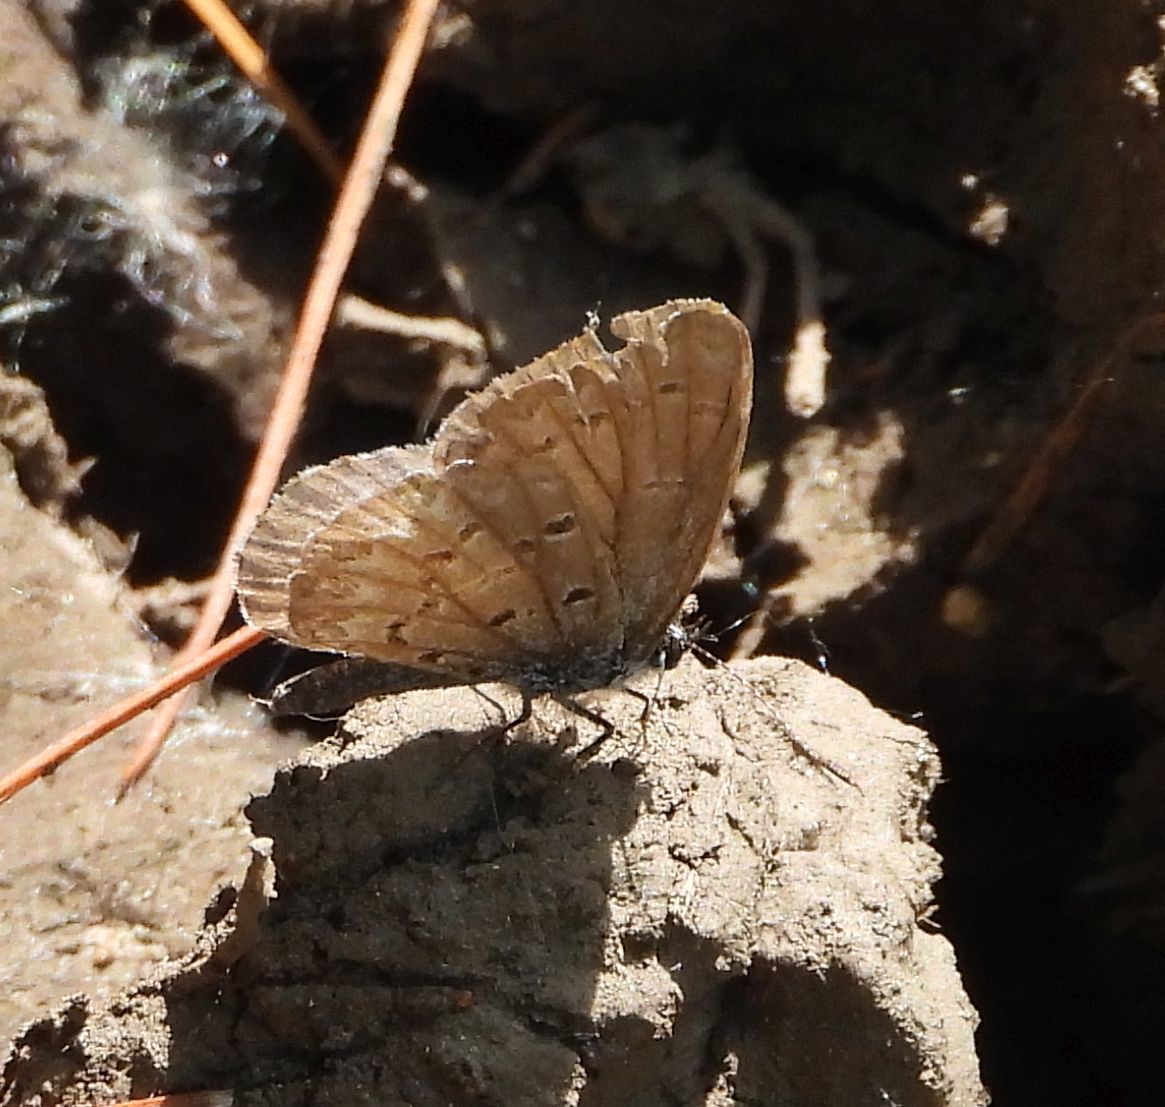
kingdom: Animalia
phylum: Arthropoda
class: Insecta
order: Lepidoptera
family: Lycaenidae
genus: Celastrina
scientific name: Celastrina lucia
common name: Lucia azure
